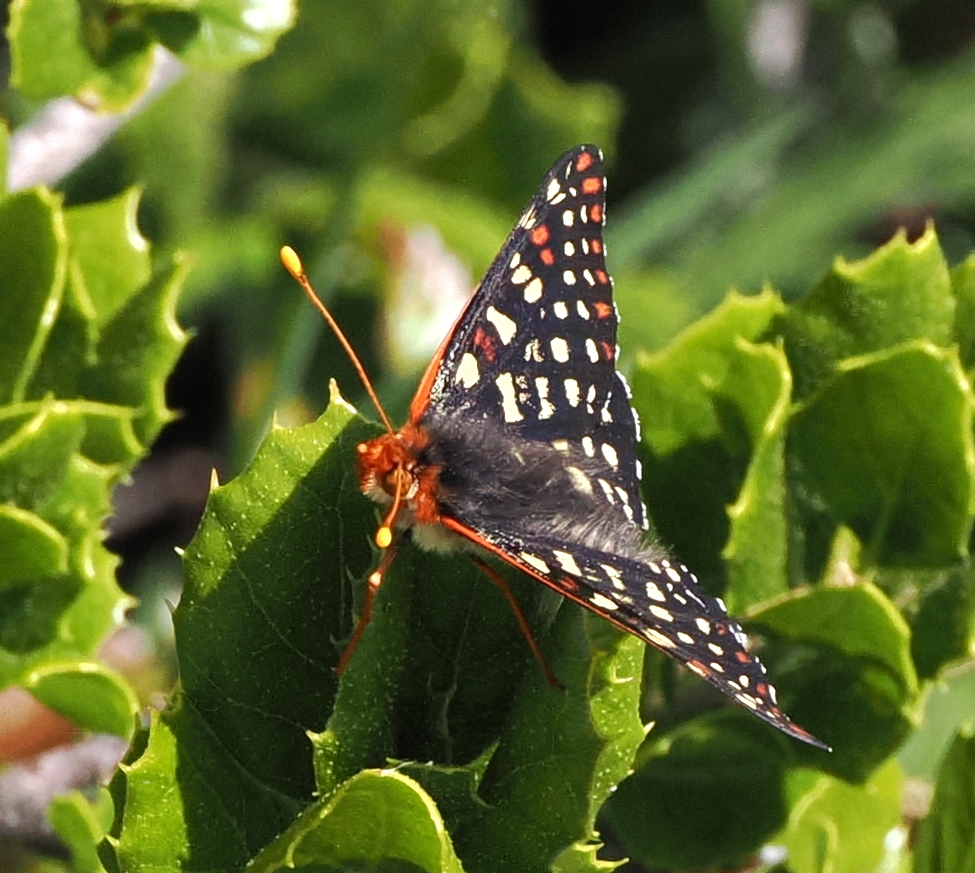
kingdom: Animalia
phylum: Arthropoda
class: Insecta
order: Lepidoptera
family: Nymphalidae
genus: Occidryas
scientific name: Occidryas chalcedona
